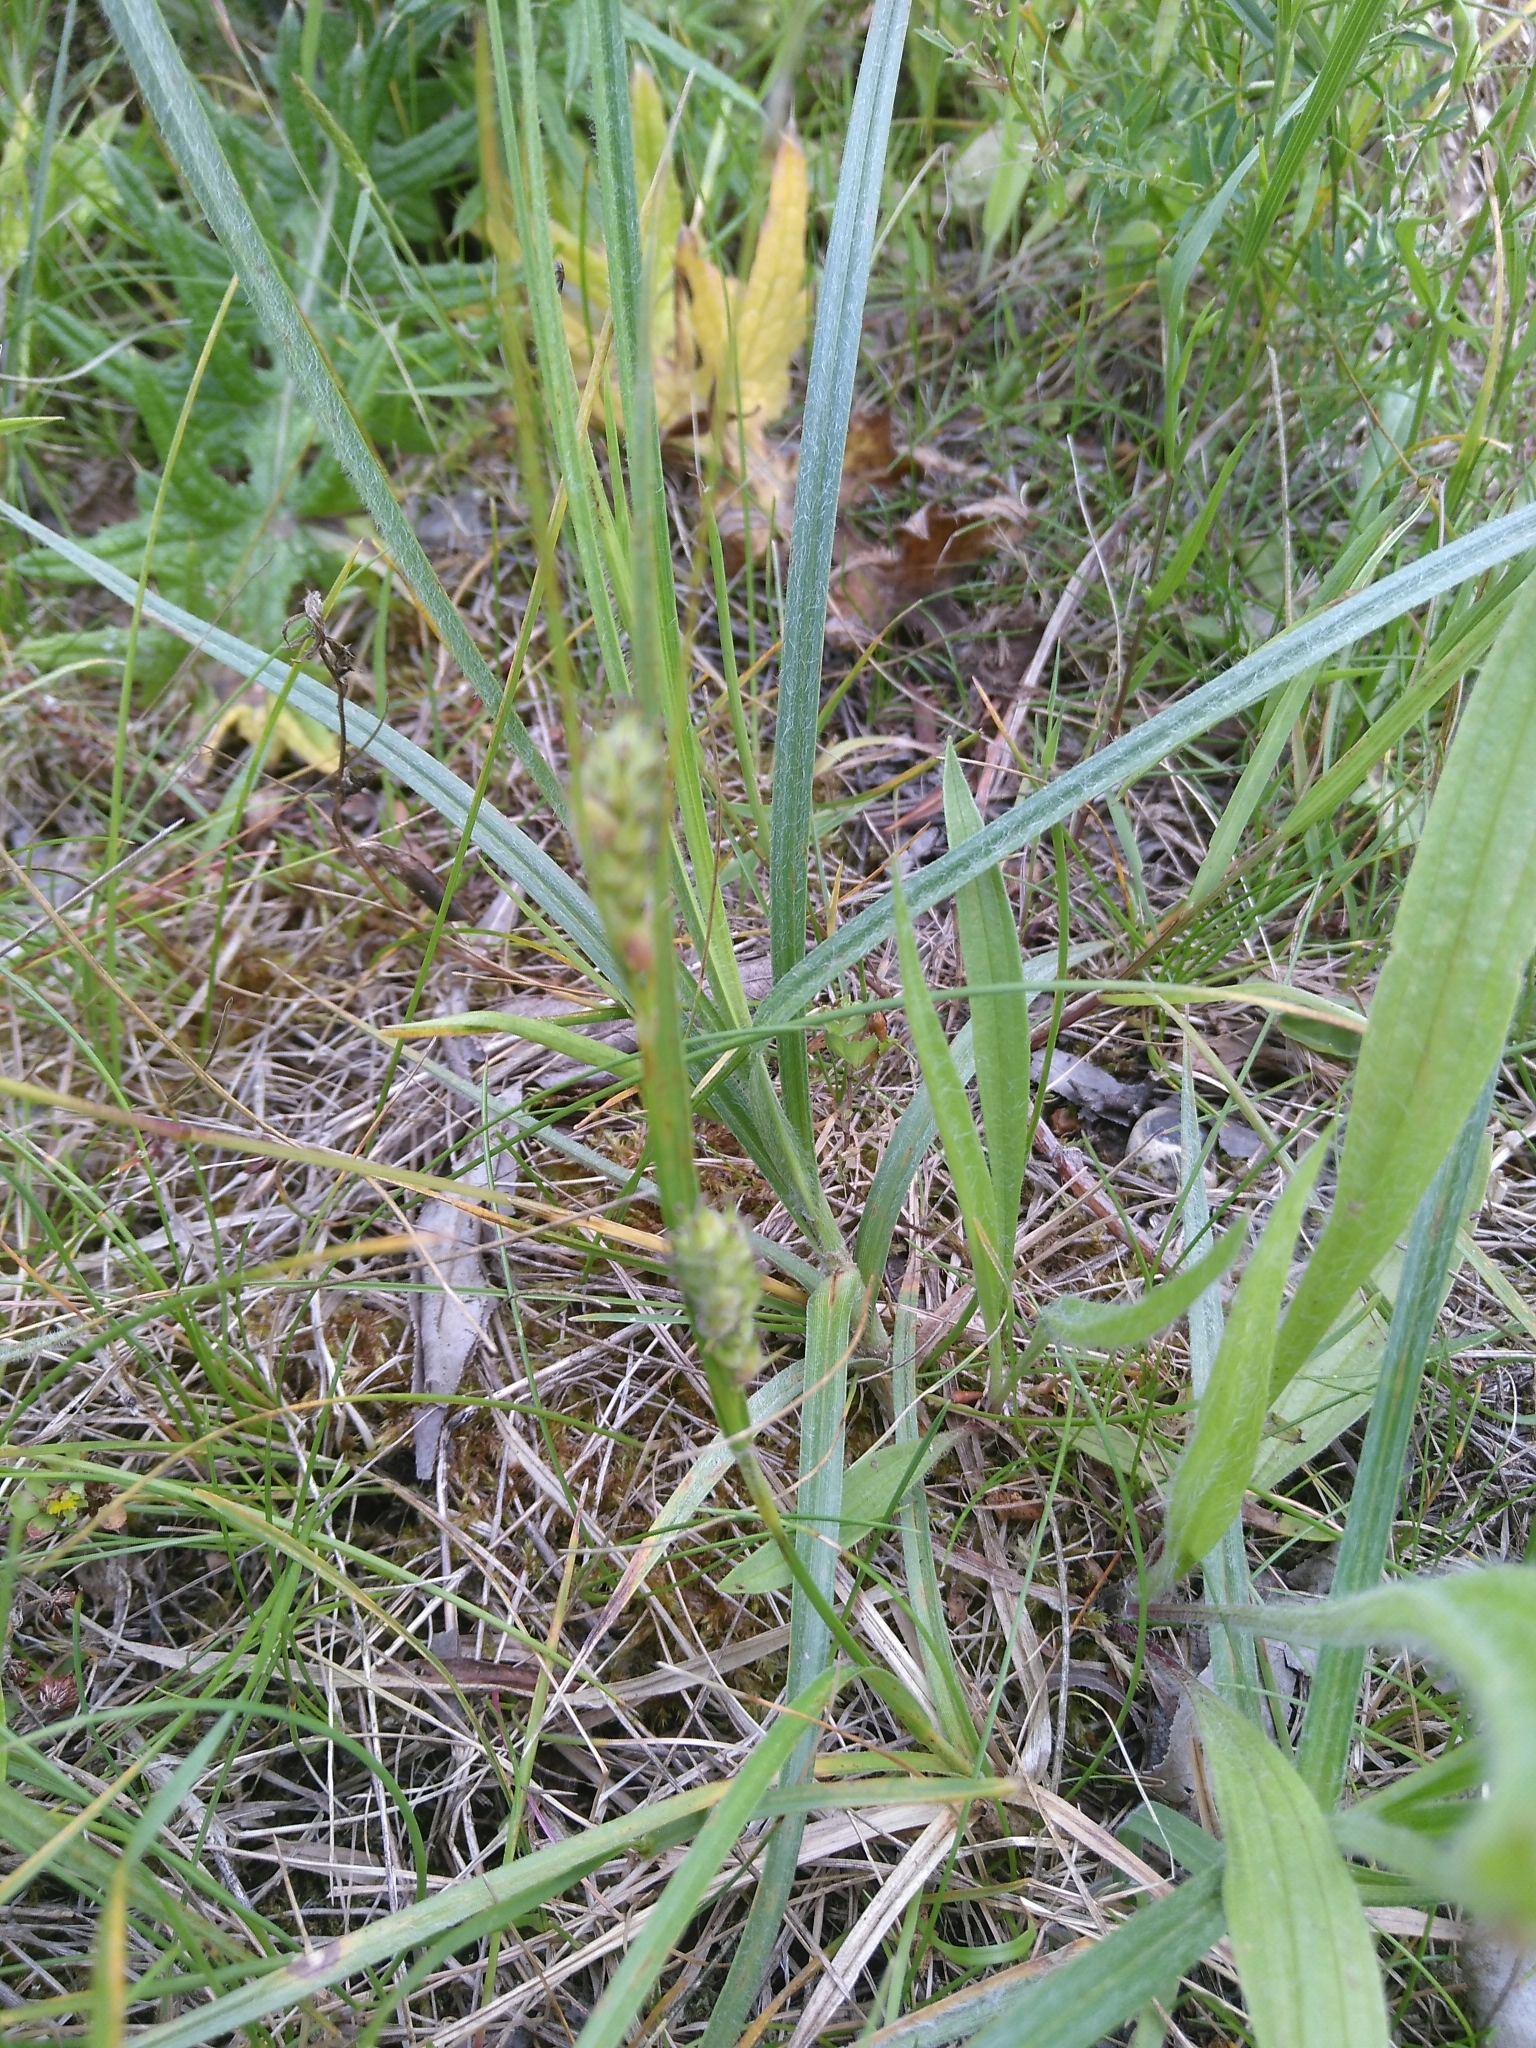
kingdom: Plantae
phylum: Tracheophyta
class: Liliopsida
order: Poales
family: Cyperaceae
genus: Carex
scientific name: Carex hirta
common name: Hairy sedge
